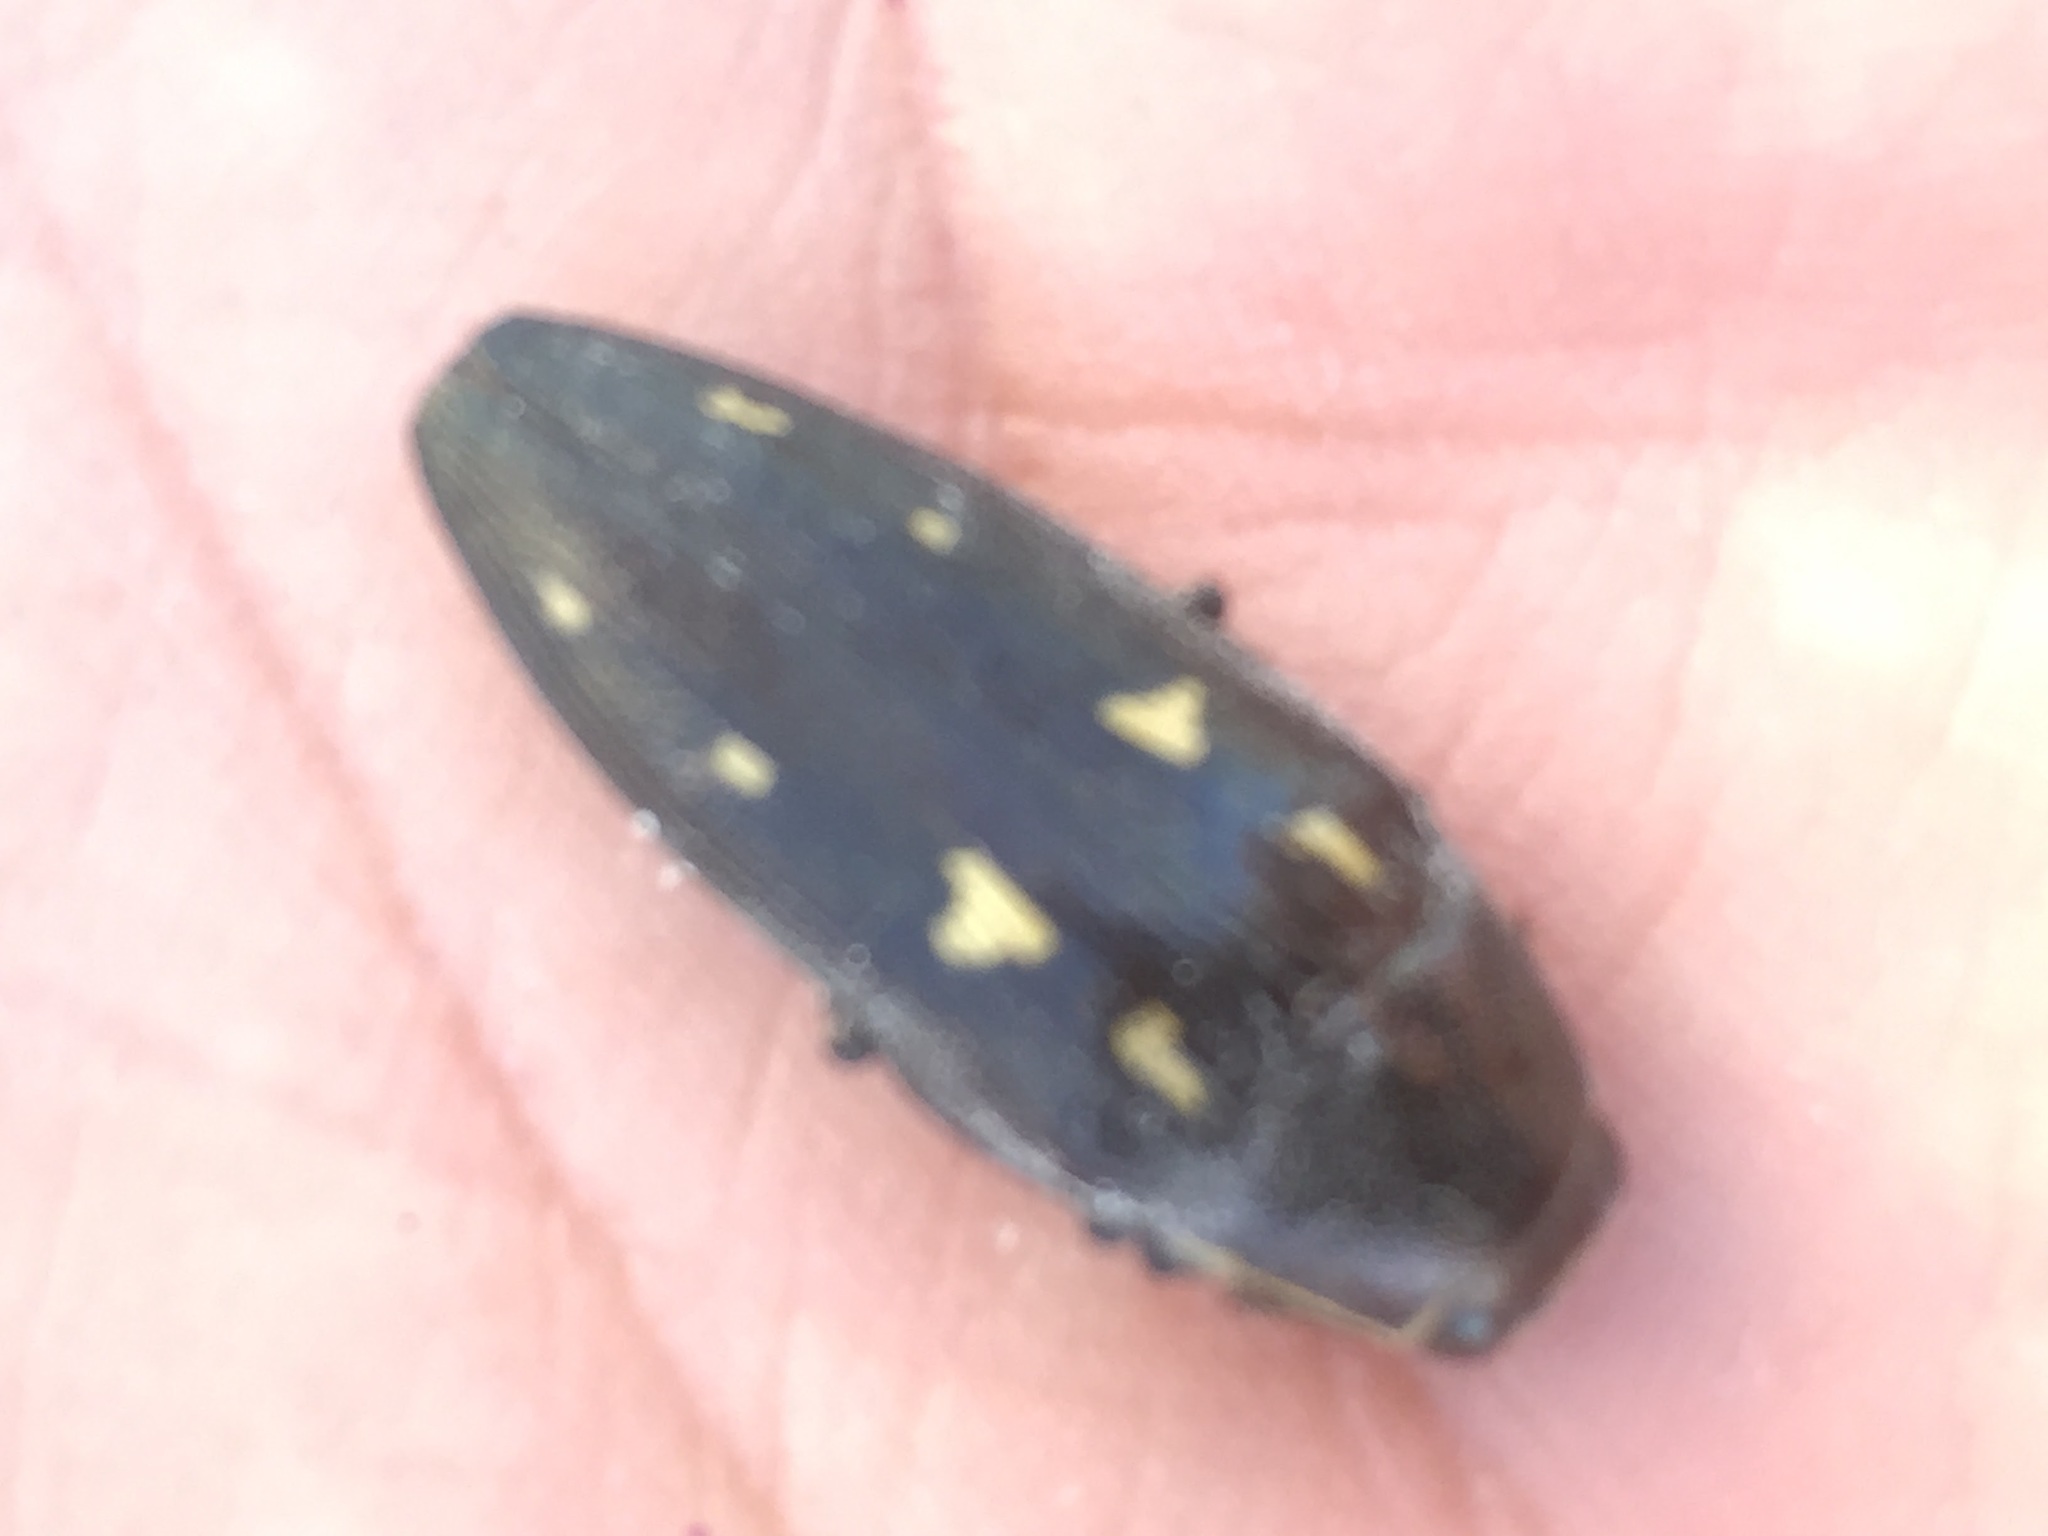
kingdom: Animalia
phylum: Arthropoda
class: Insecta
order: Coleoptera
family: Buprestidae
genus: Buprestis
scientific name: Buprestis novemmaculata
